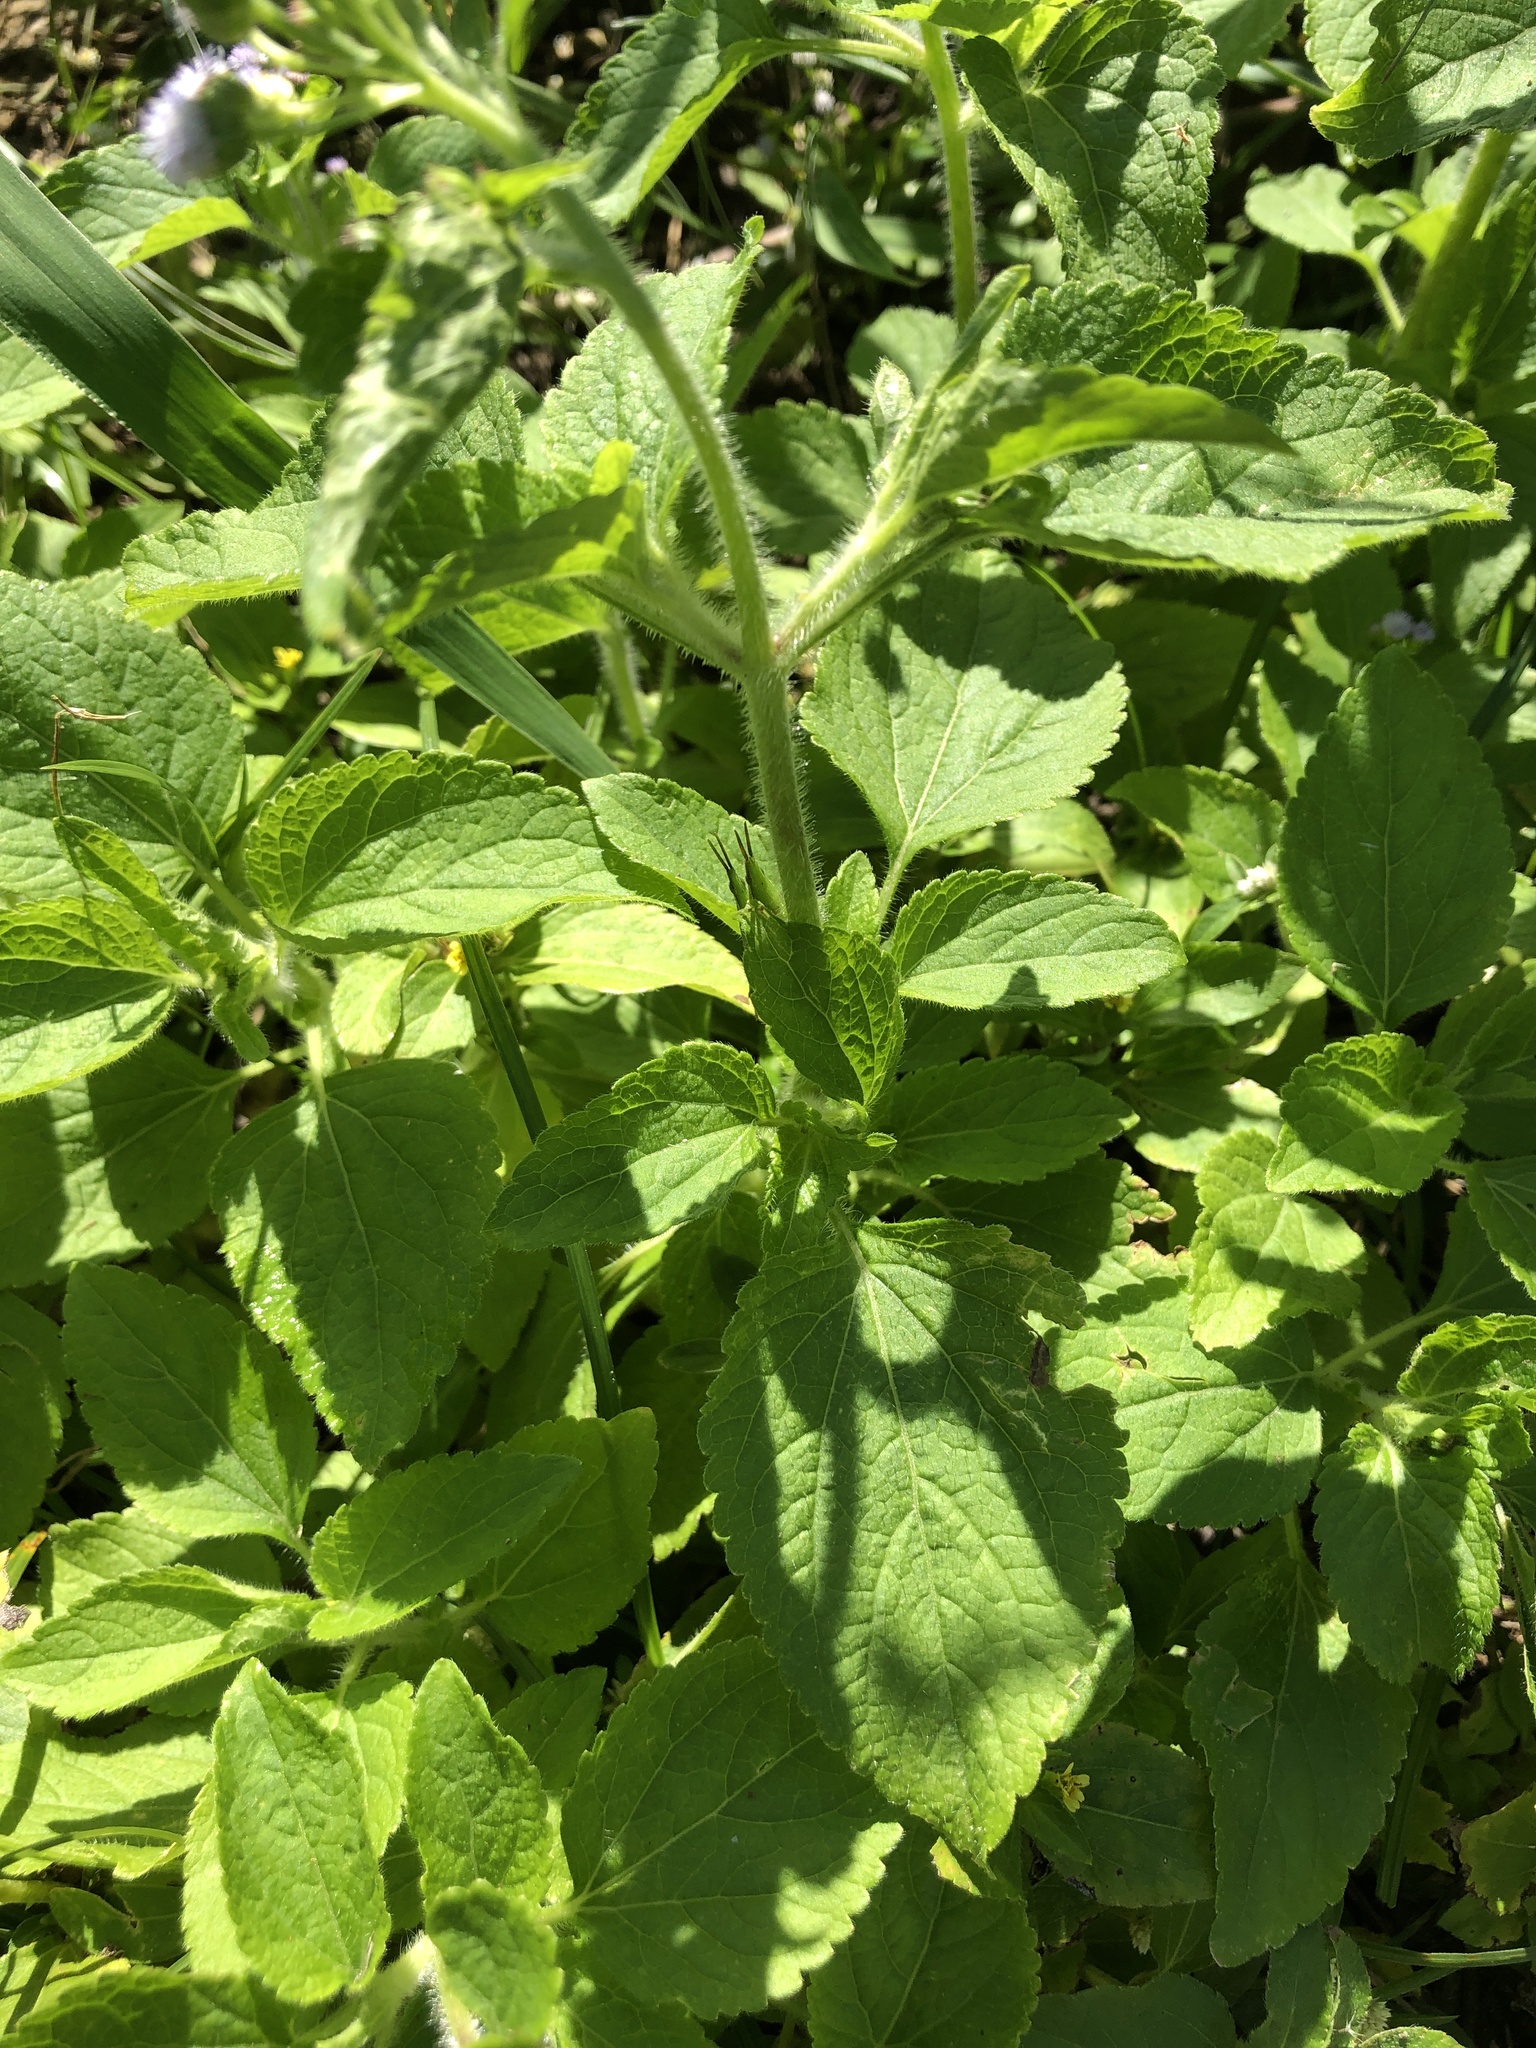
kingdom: Plantae
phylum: Tracheophyta
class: Magnoliopsida
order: Asterales
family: Asteraceae
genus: Ageratum
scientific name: Ageratum conyzoides
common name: Tropical whiteweed
